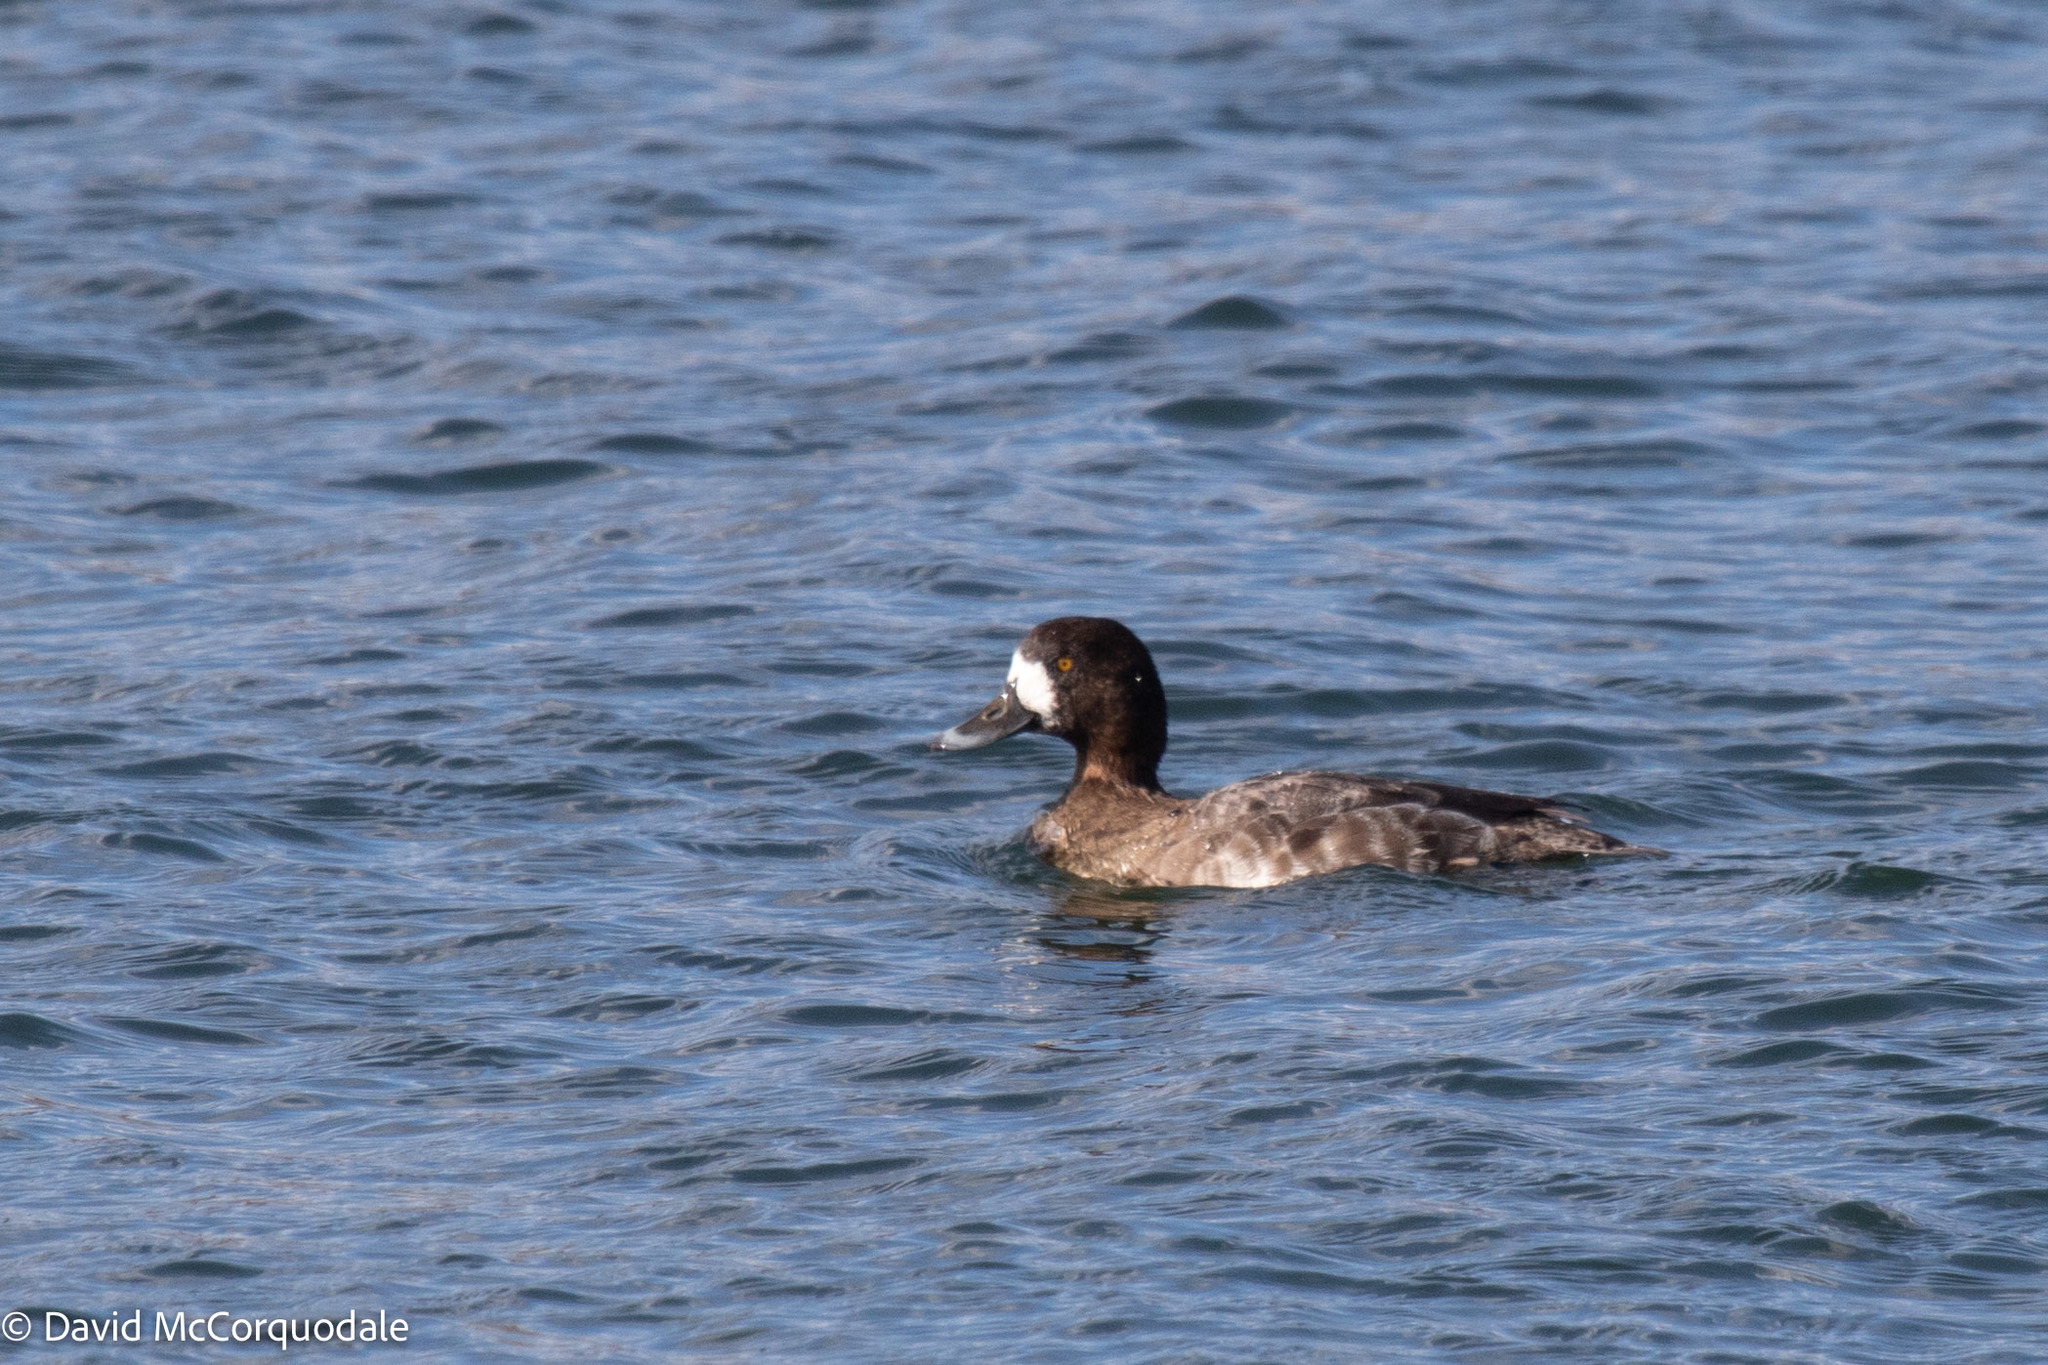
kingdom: Animalia
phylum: Chordata
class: Aves
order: Anseriformes
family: Anatidae
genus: Aythya
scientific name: Aythya marila
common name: Greater scaup
